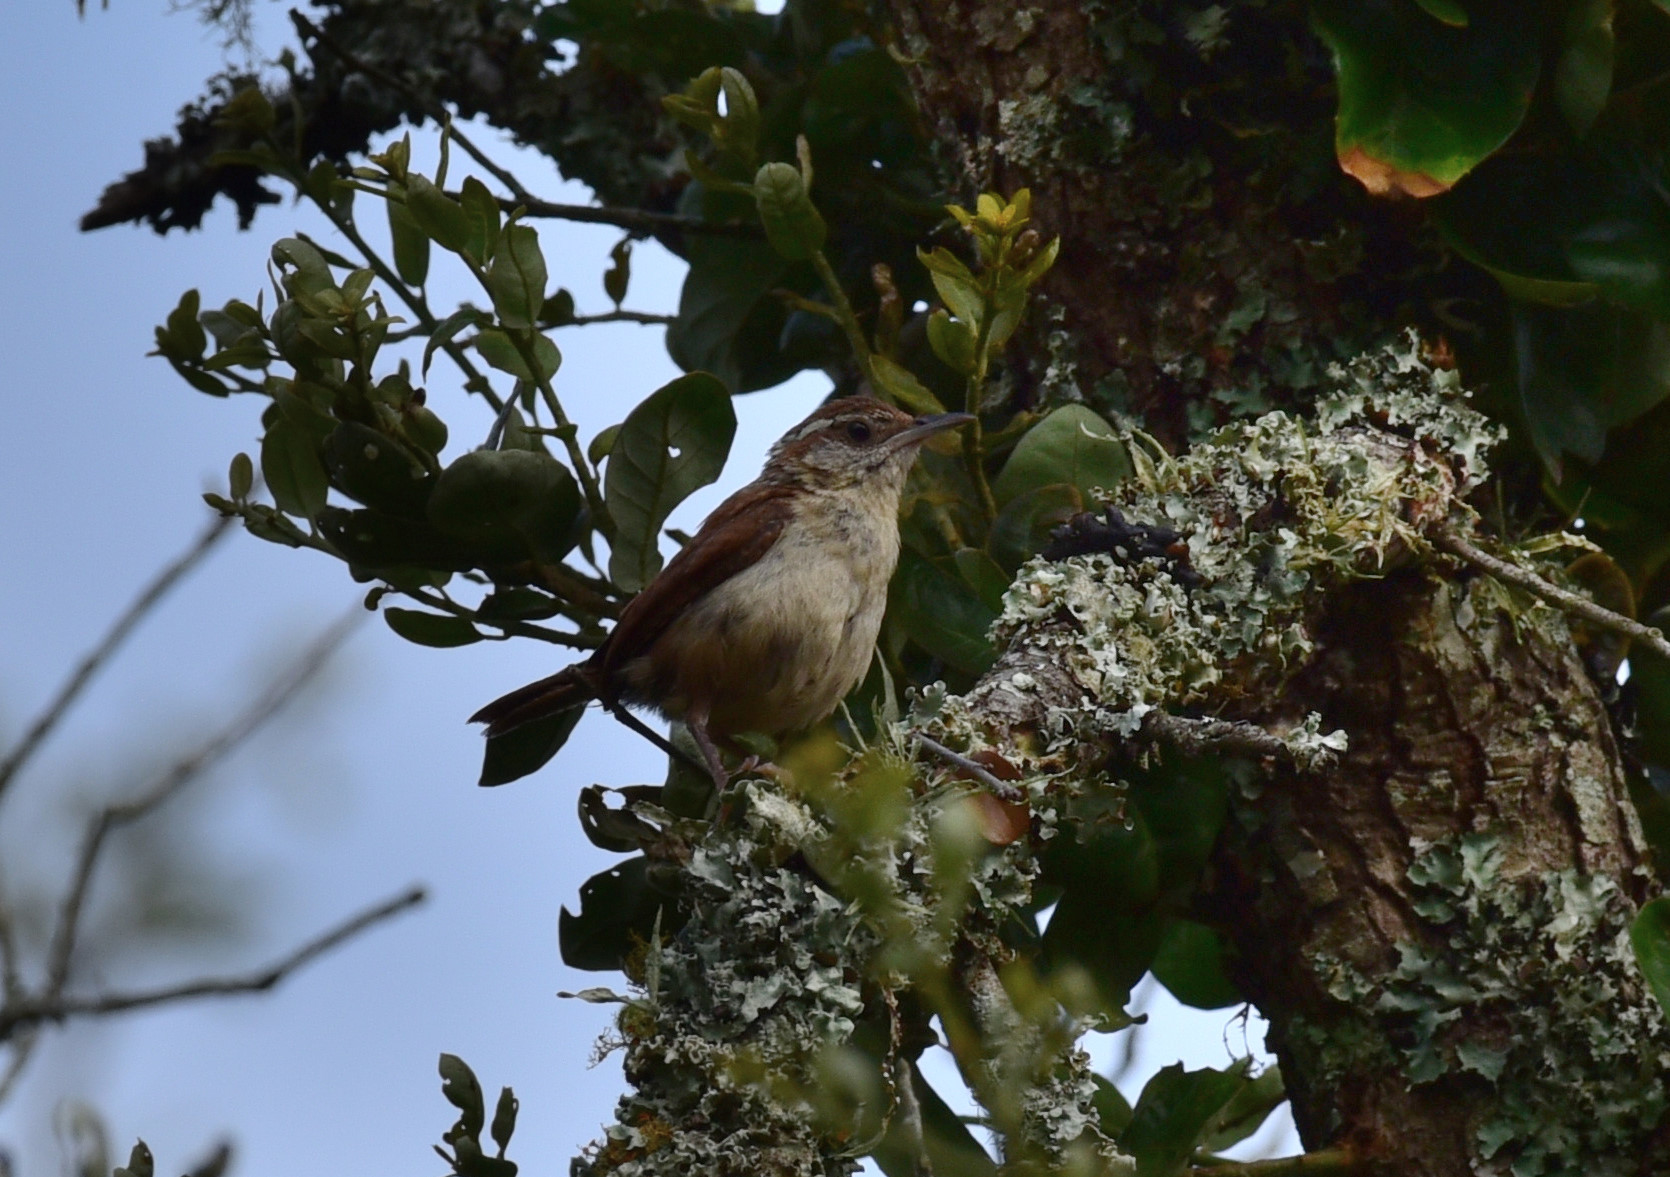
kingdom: Animalia
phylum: Chordata
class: Aves
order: Passeriformes
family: Troglodytidae
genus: Thryothorus
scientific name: Thryothorus ludovicianus
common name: Carolina wren
